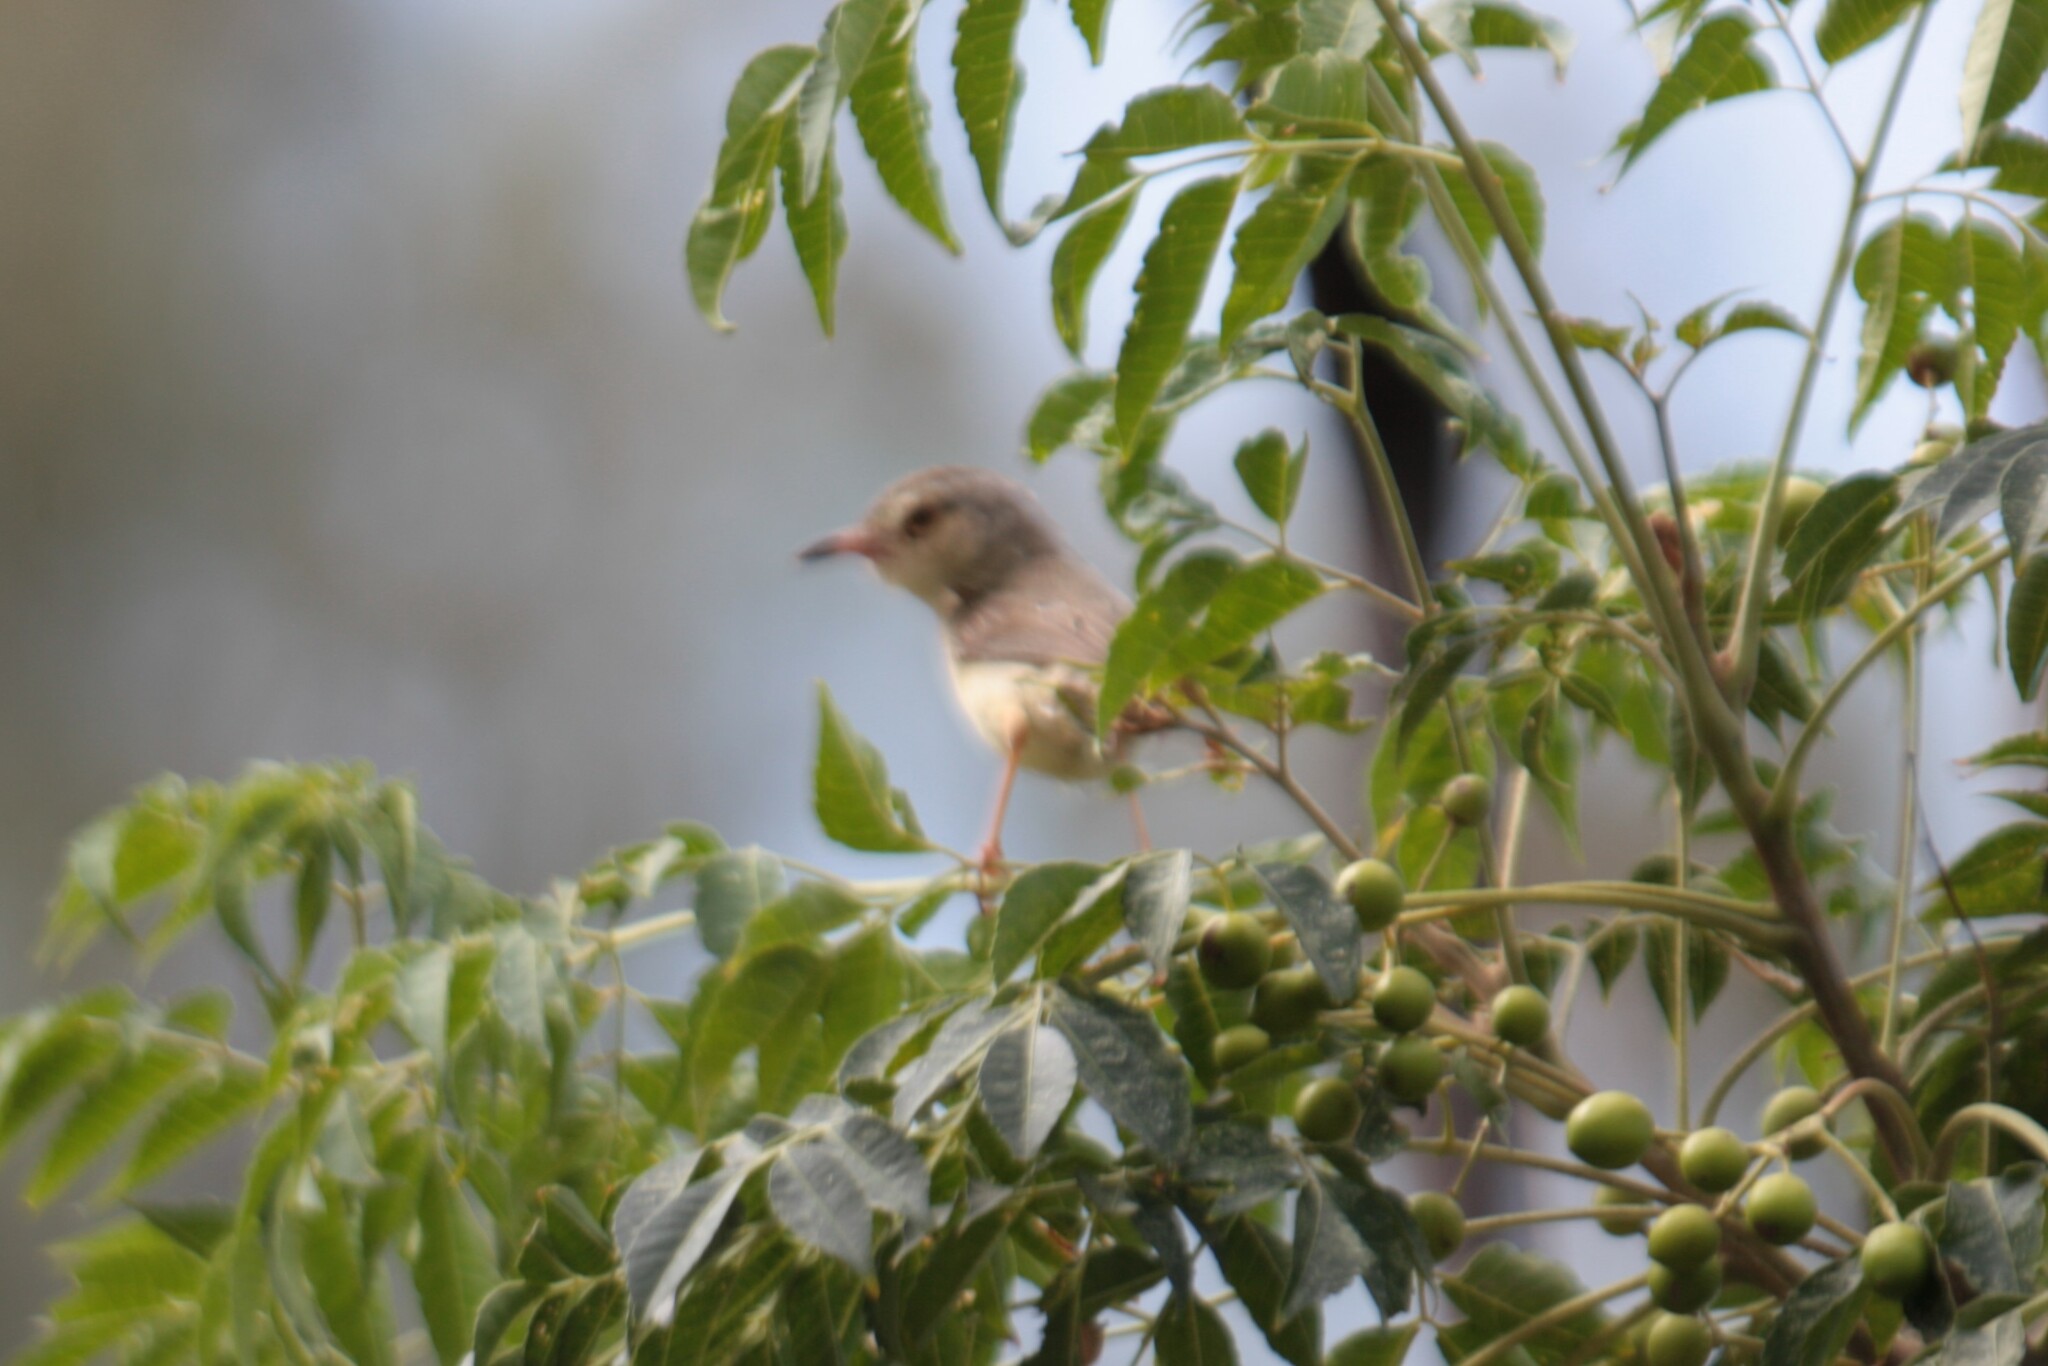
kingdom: Animalia
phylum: Chordata
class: Aves
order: Passeriformes
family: Cisticolidae
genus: Prinia
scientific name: Prinia inornata
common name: Plain prinia
